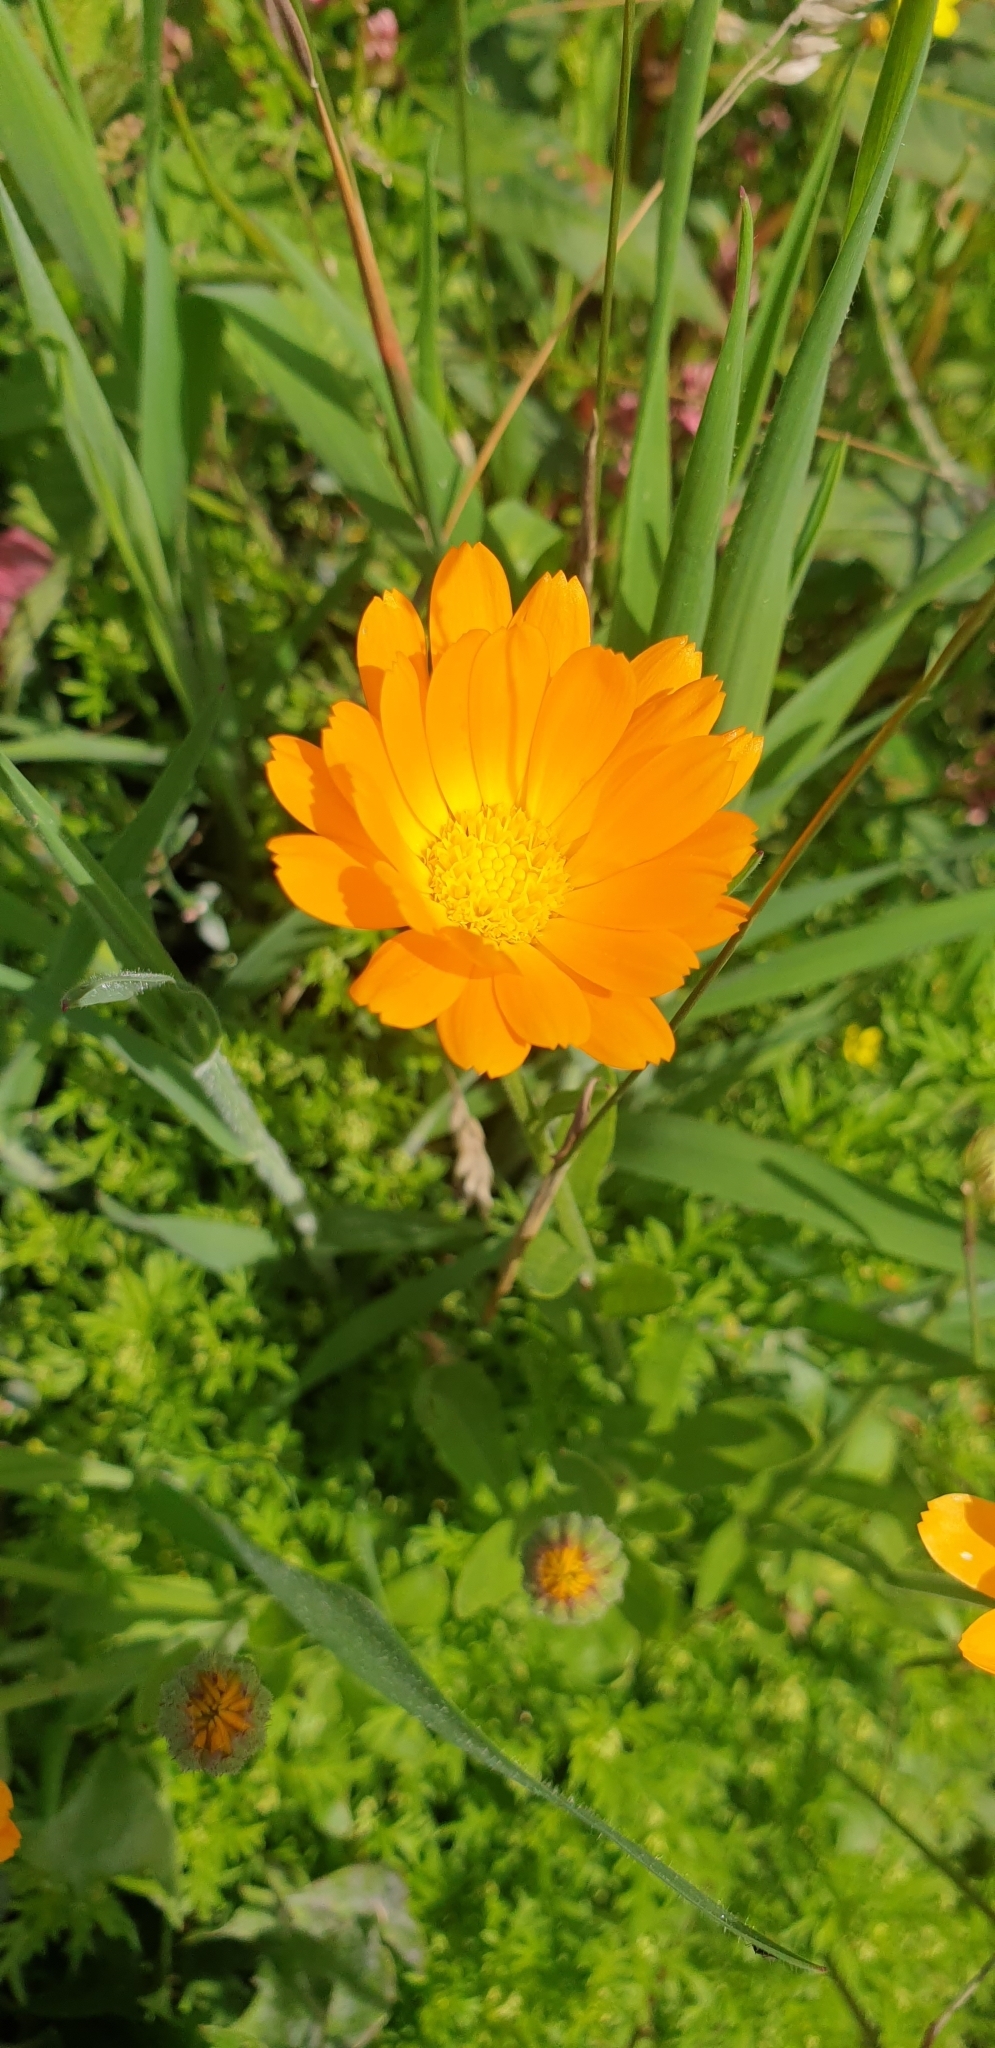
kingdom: Plantae
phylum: Tracheophyta
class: Magnoliopsida
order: Asterales
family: Asteraceae
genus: Calendula
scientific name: Calendula officinalis
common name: Pot marigold
